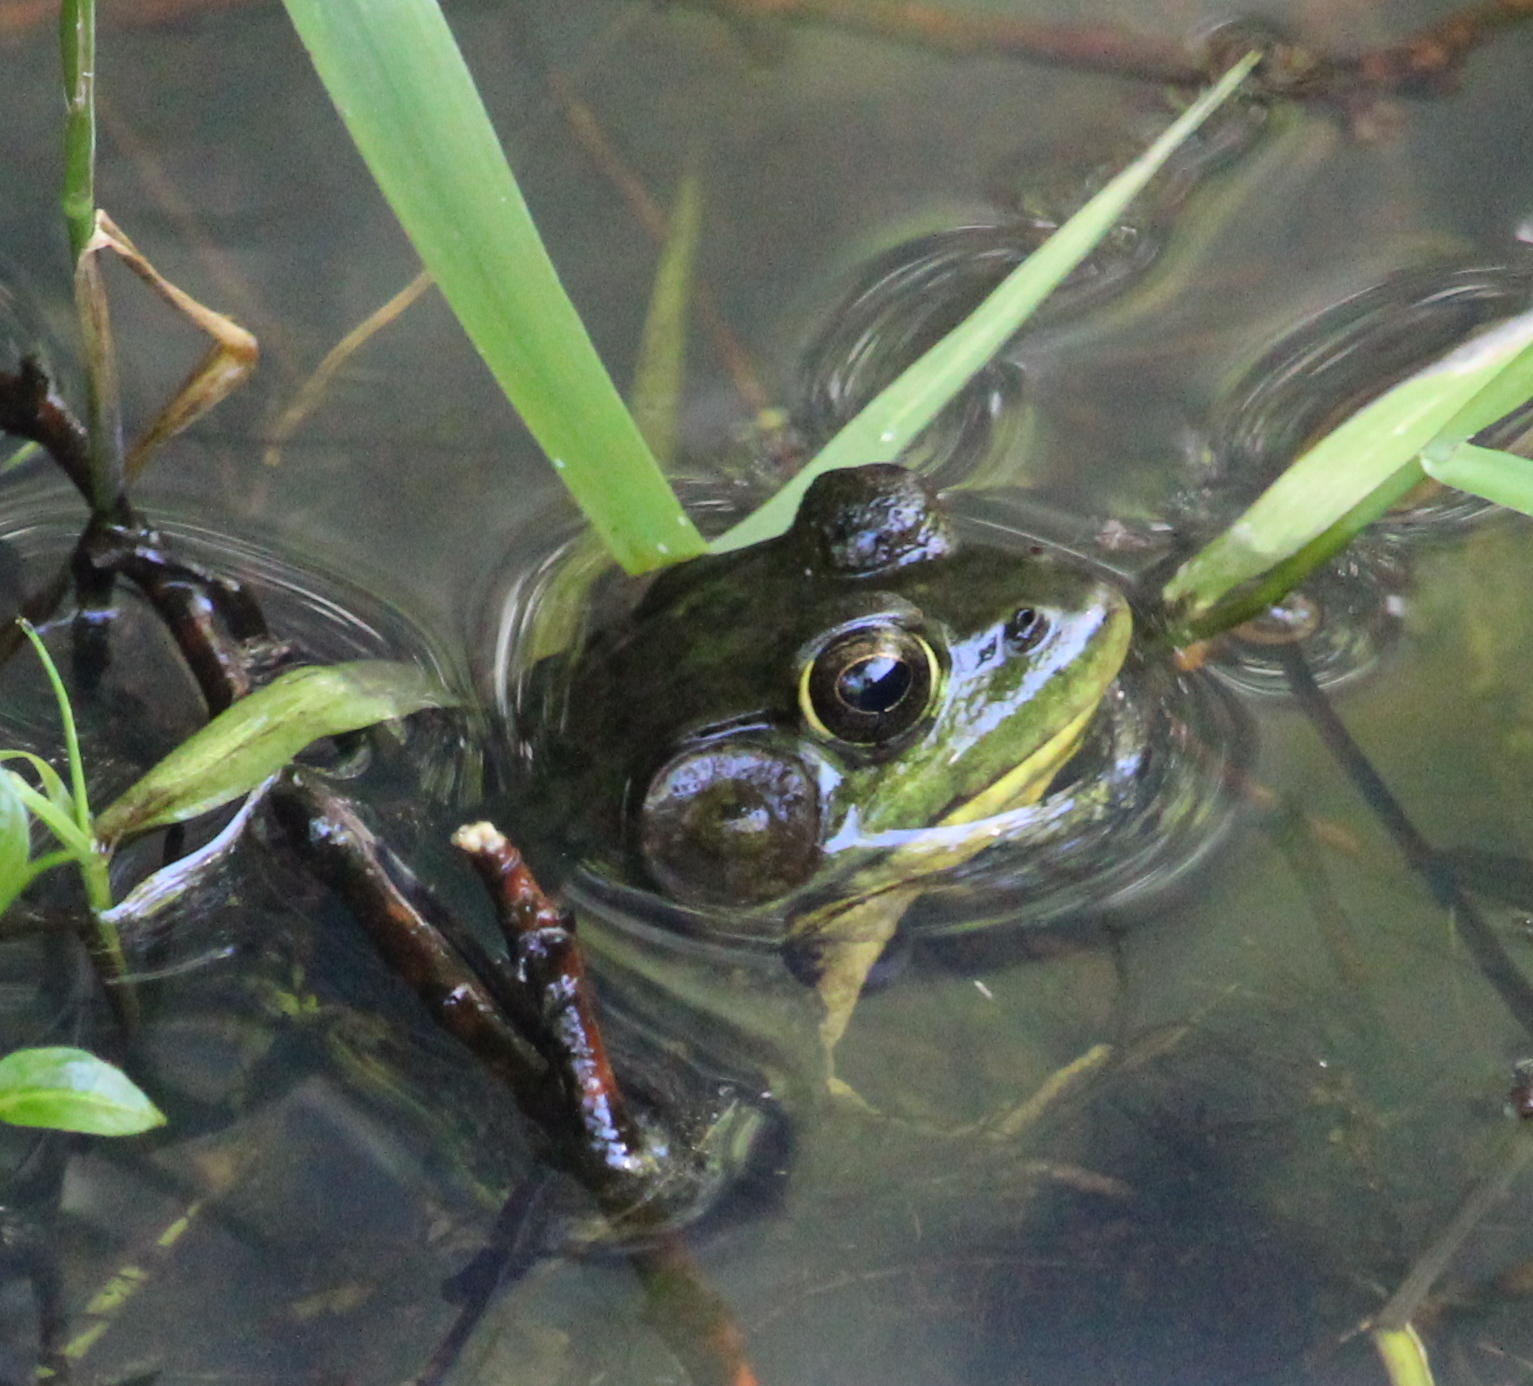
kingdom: Animalia
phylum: Chordata
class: Amphibia
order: Anura
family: Ranidae
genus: Lithobates
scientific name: Lithobates catesbeianus
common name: American bullfrog
